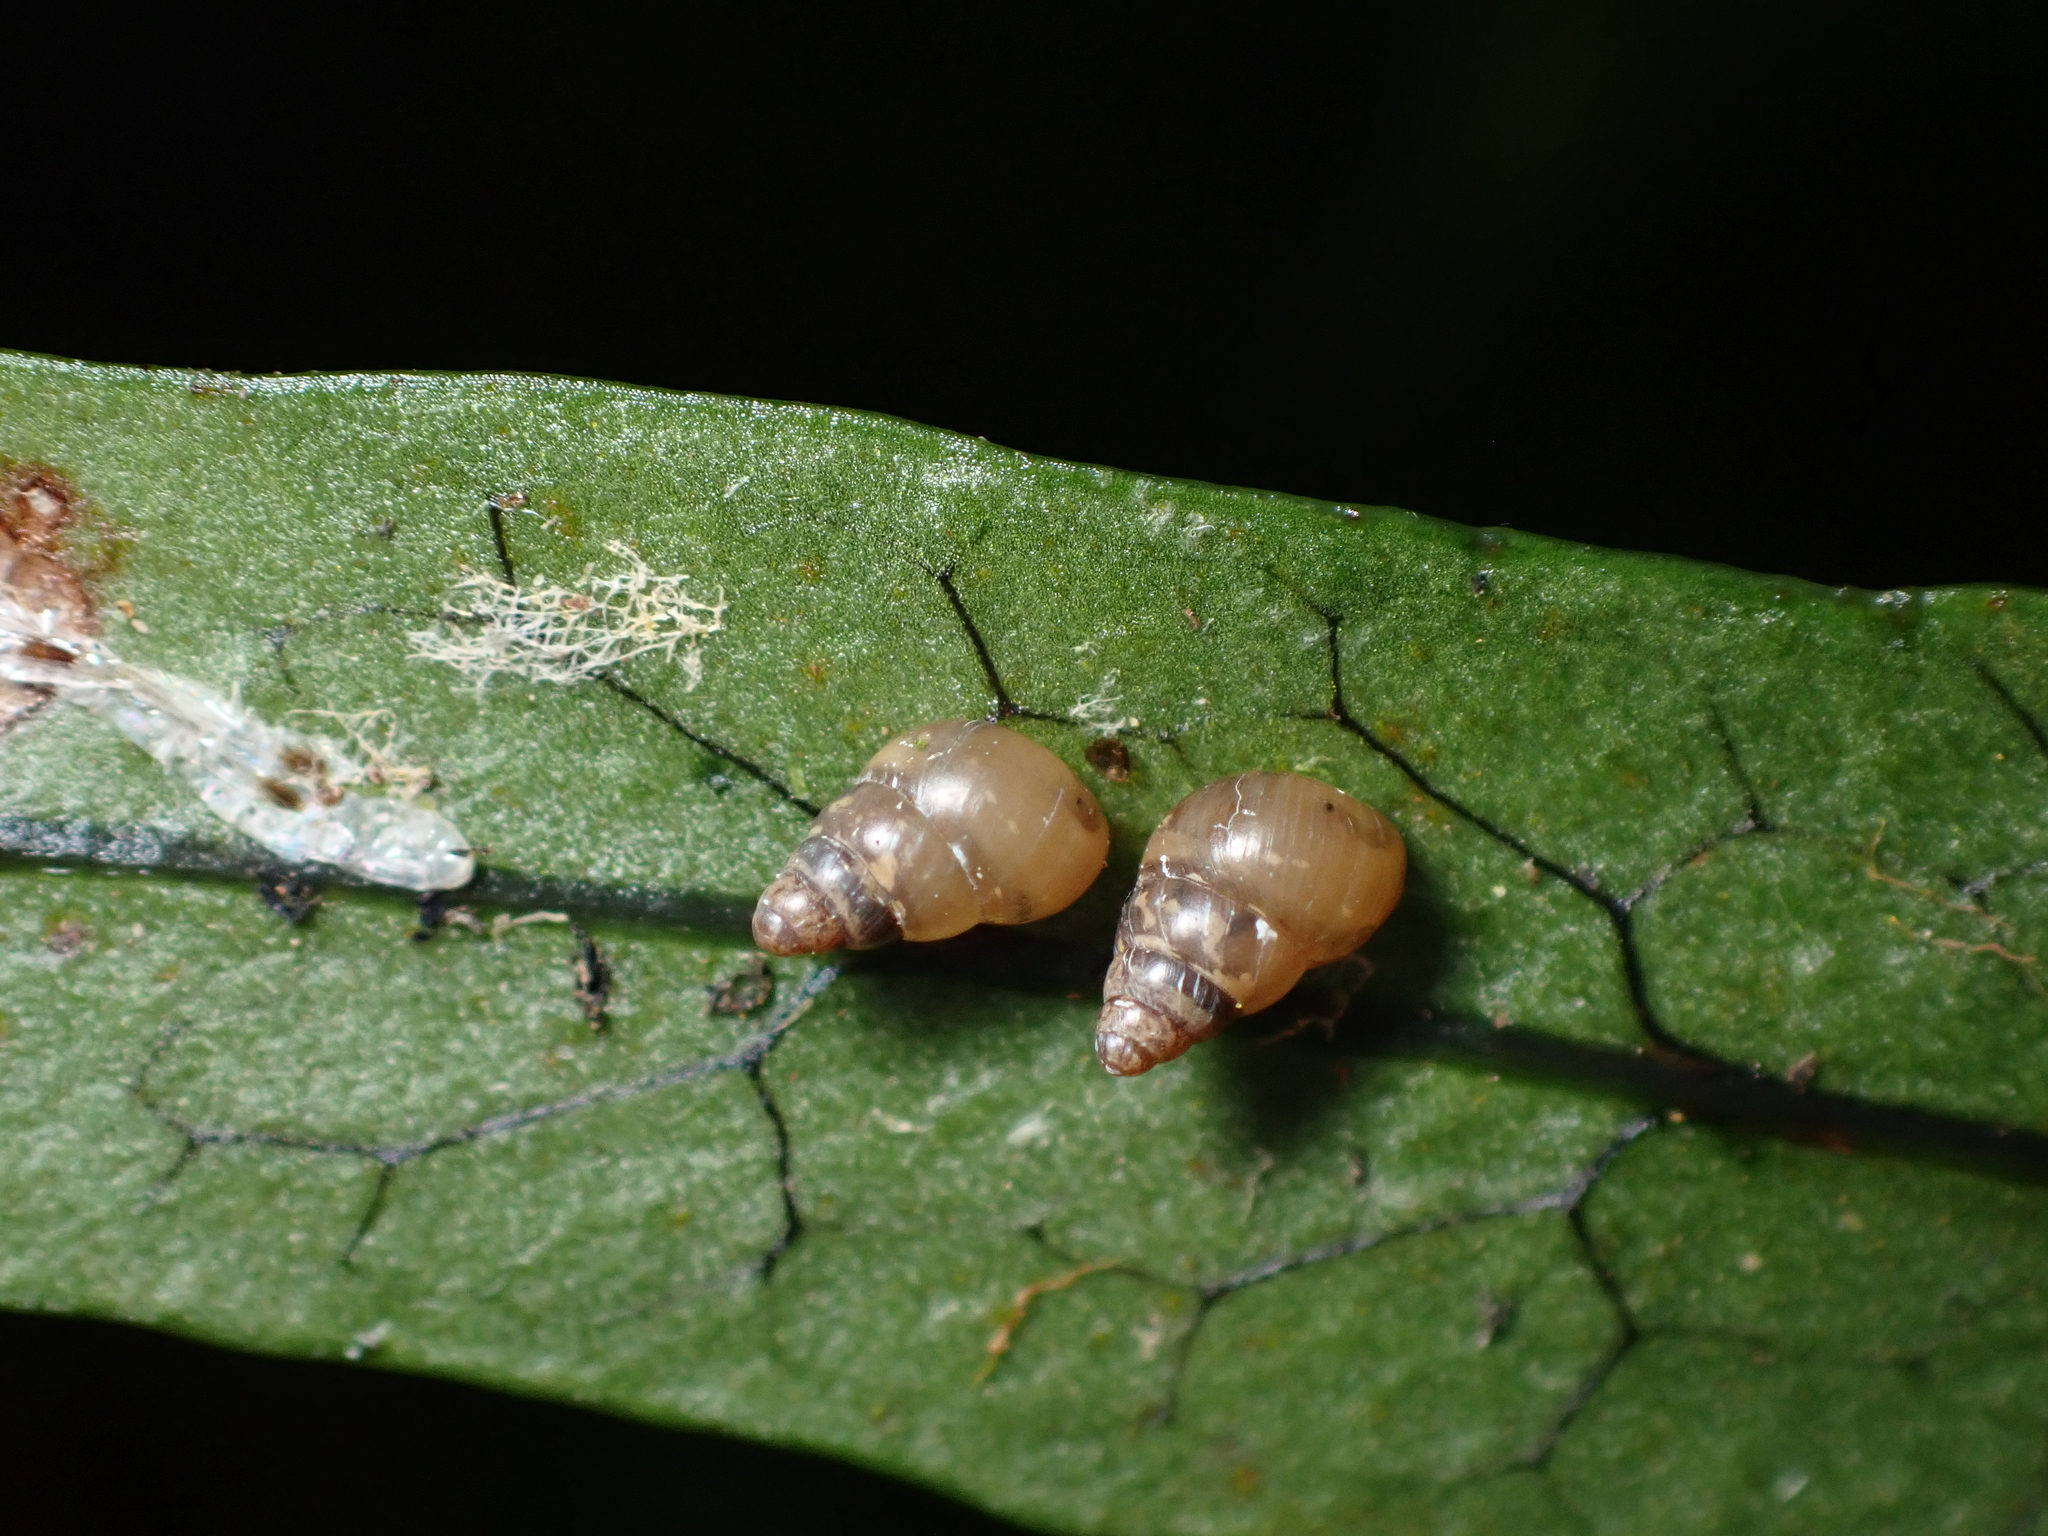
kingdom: Animalia
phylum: Mollusca
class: Gastropoda
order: Stylommatophora
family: Achatinellidae
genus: Tornatellides
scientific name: Tornatellides subperforatus
